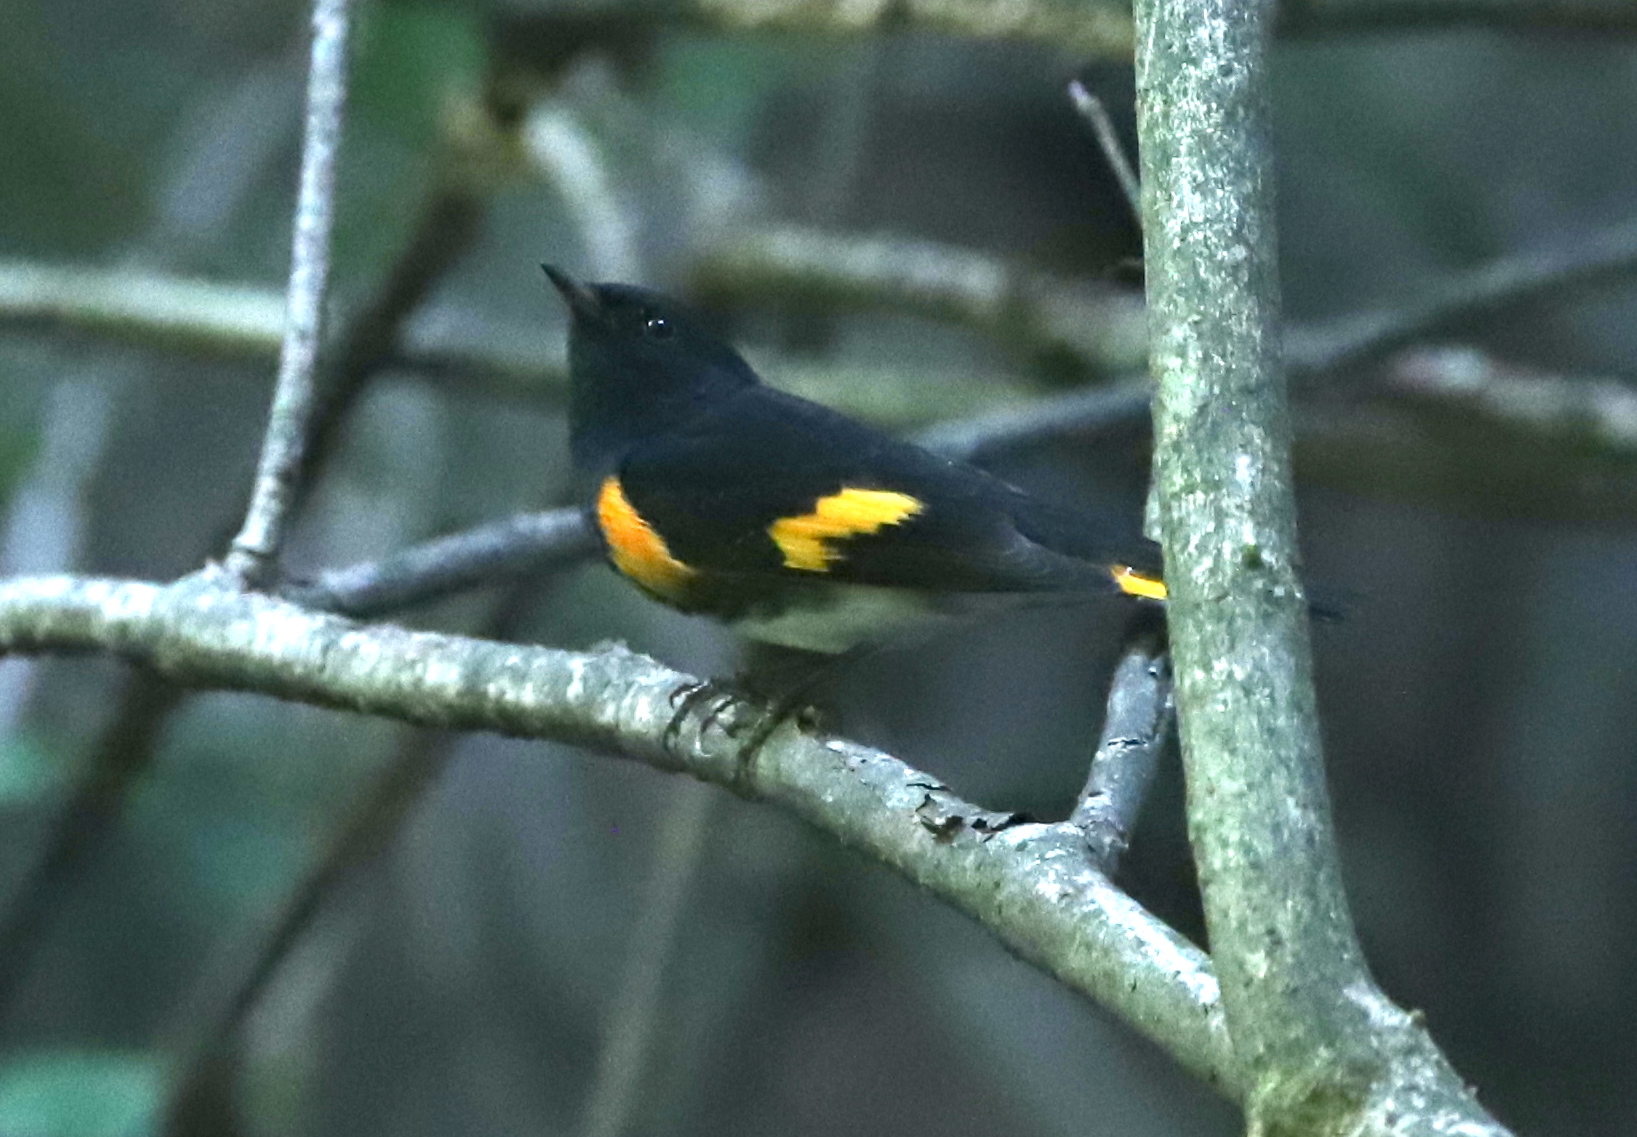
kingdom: Animalia
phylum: Chordata
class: Aves
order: Passeriformes
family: Parulidae
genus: Setophaga
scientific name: Setophaga ruticilla
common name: American redstart
